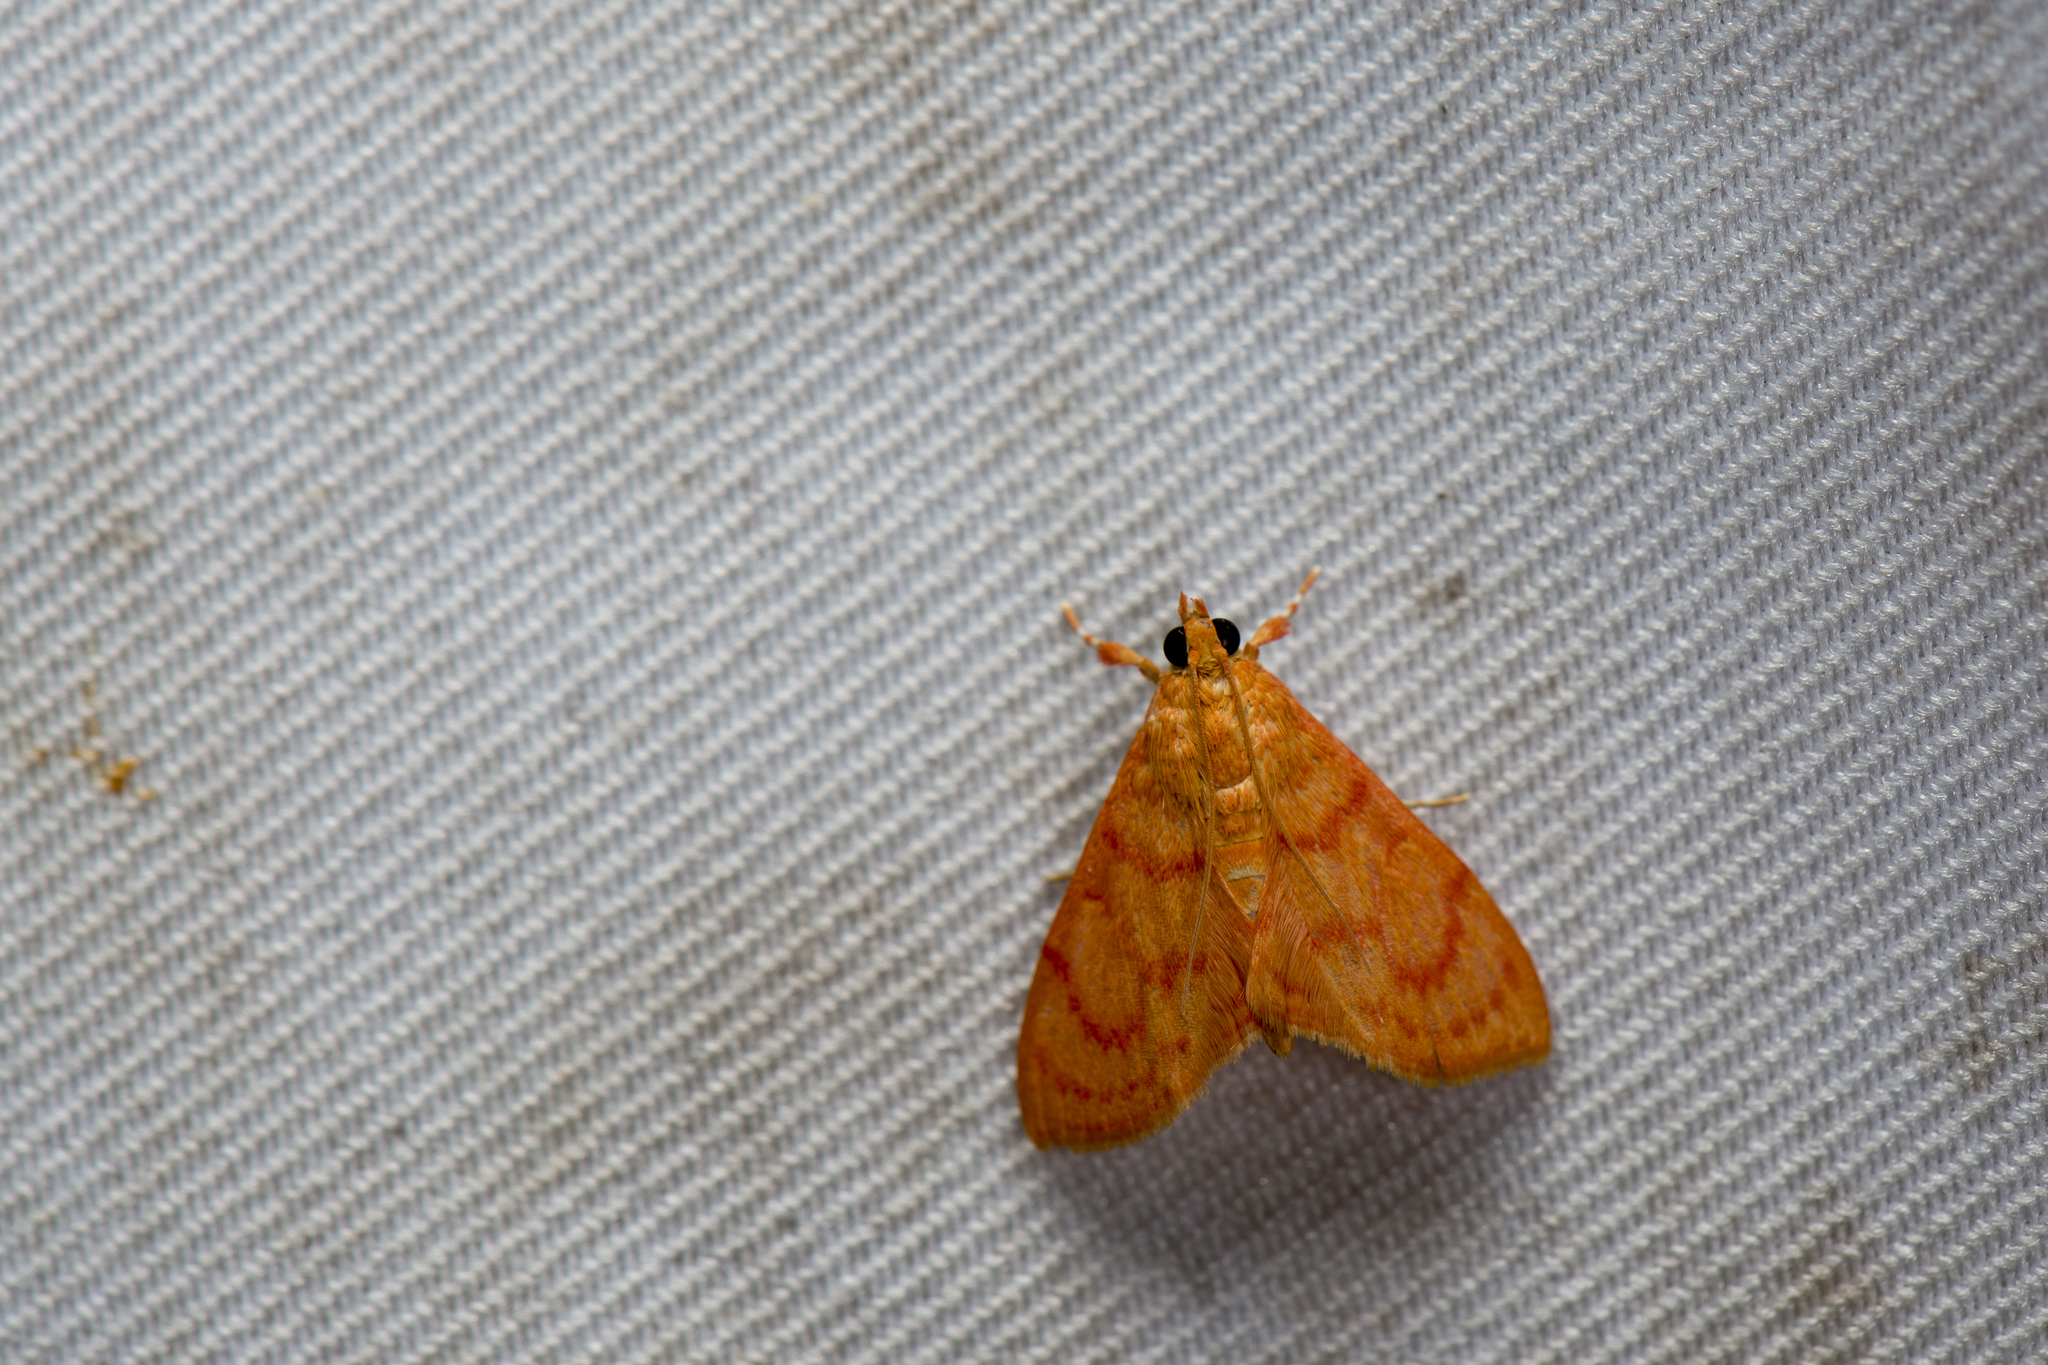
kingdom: Animalia
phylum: Arthropoda
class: Insecta
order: Lepidoptera
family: Crambidae
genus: Hyalobathra
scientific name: Hyalobathra miniosalis
